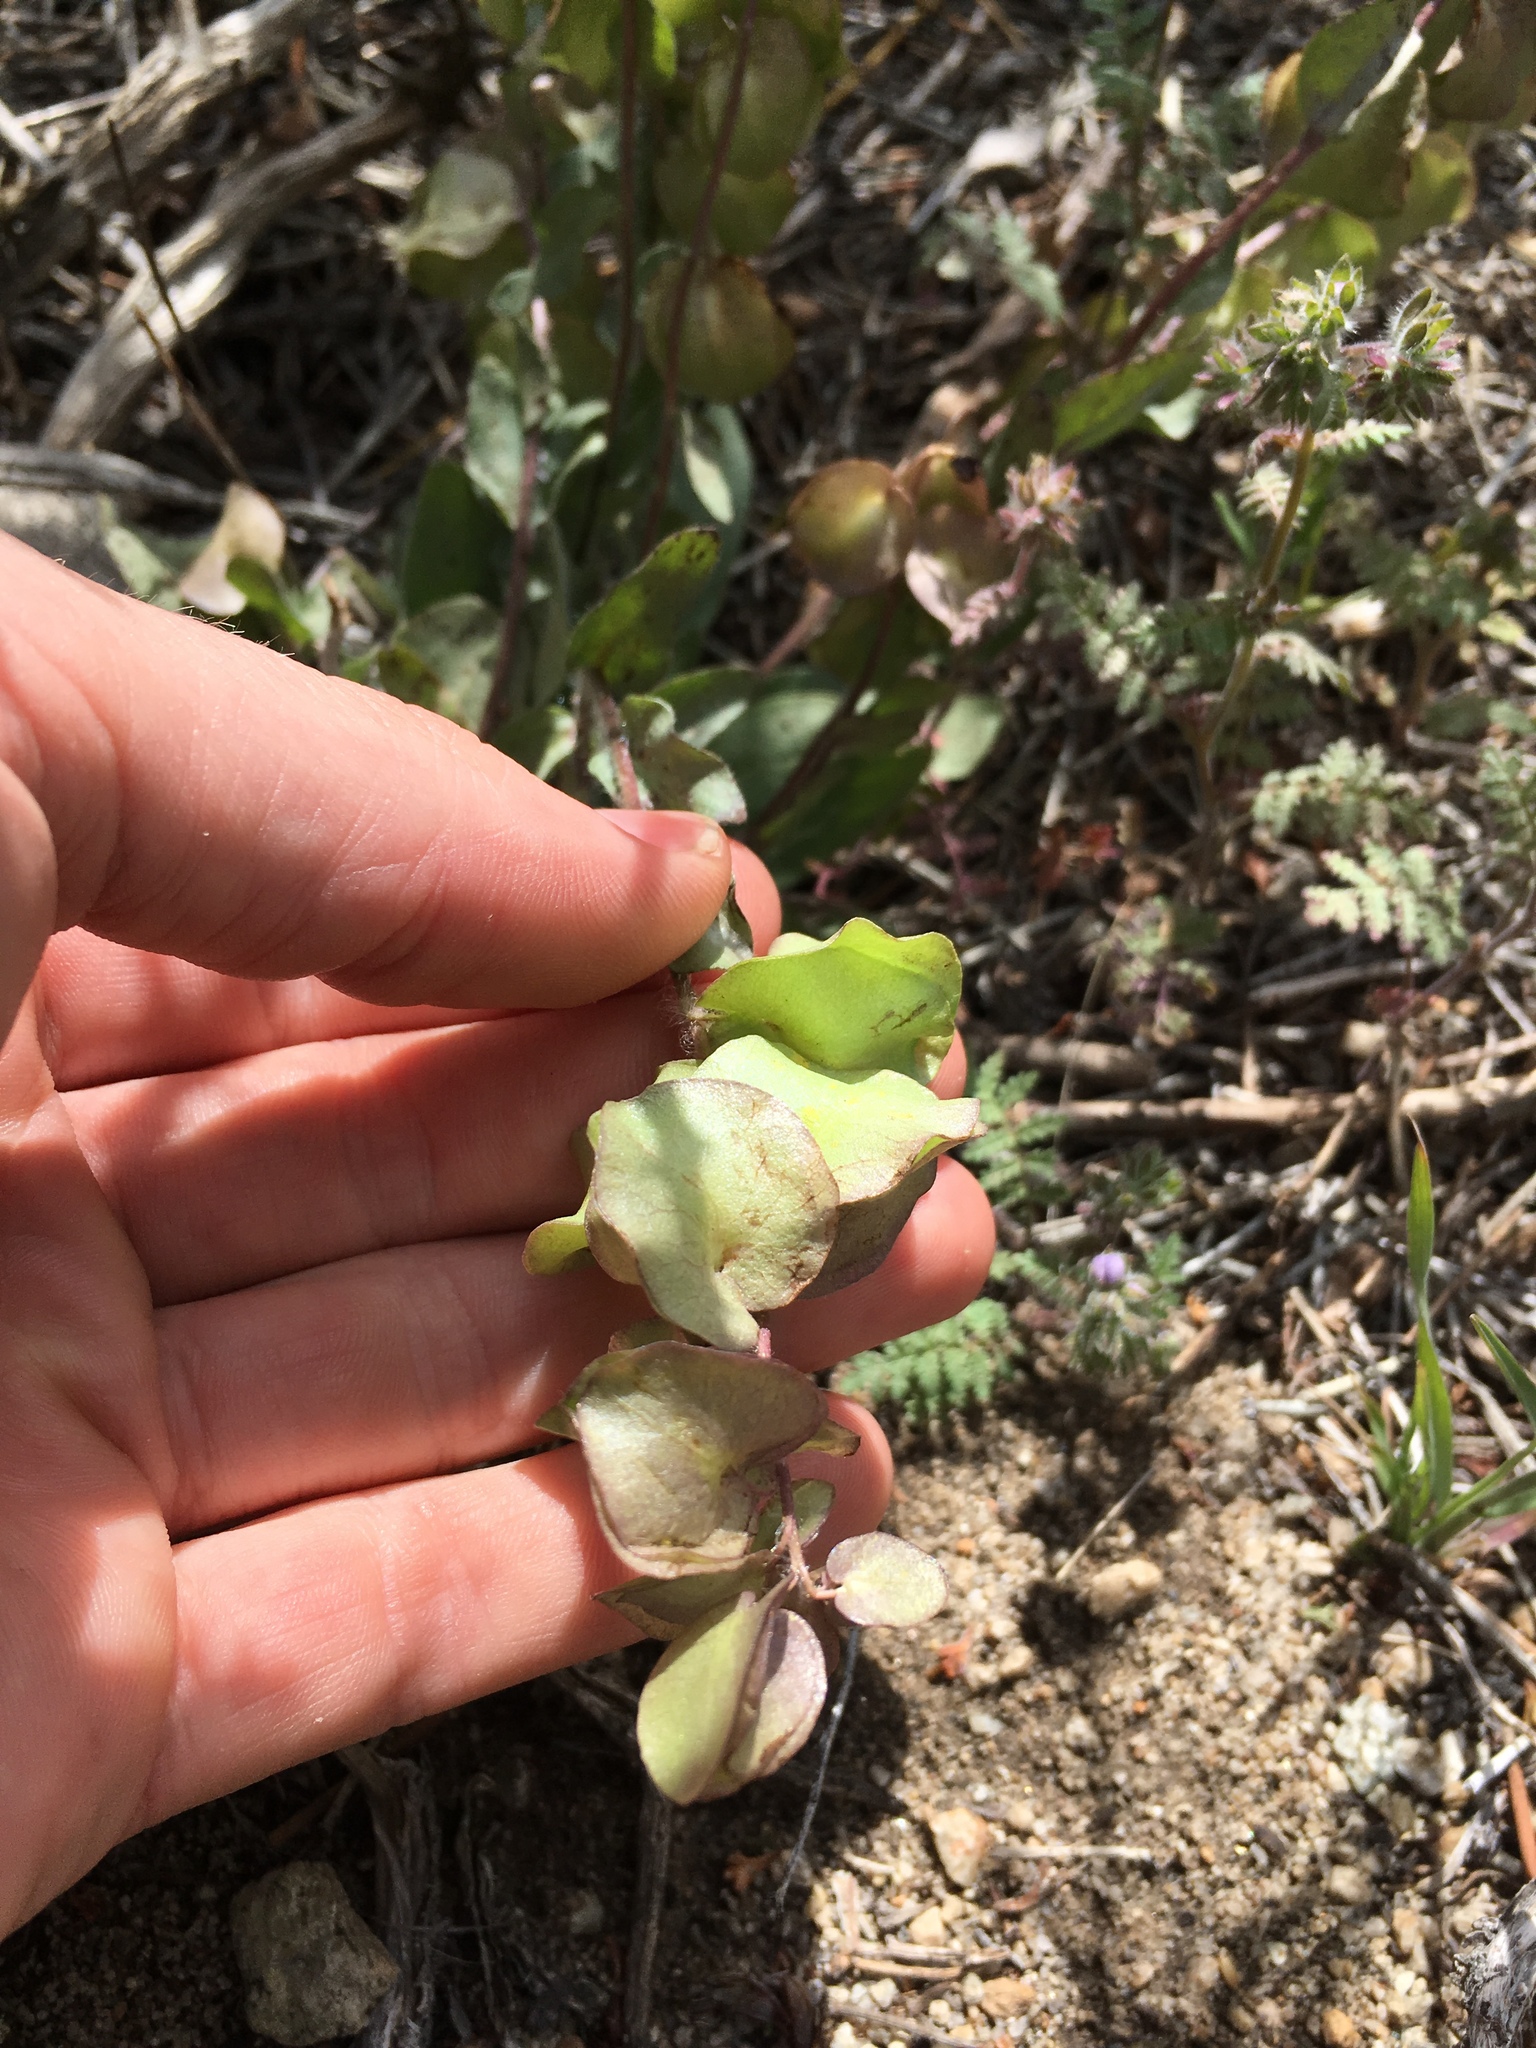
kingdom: Plantae
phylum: Tracheophyta
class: Magnoliopsida
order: Boraginales
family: Hydrophyllaceae
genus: Tricardia
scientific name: Tricardia watsonii
